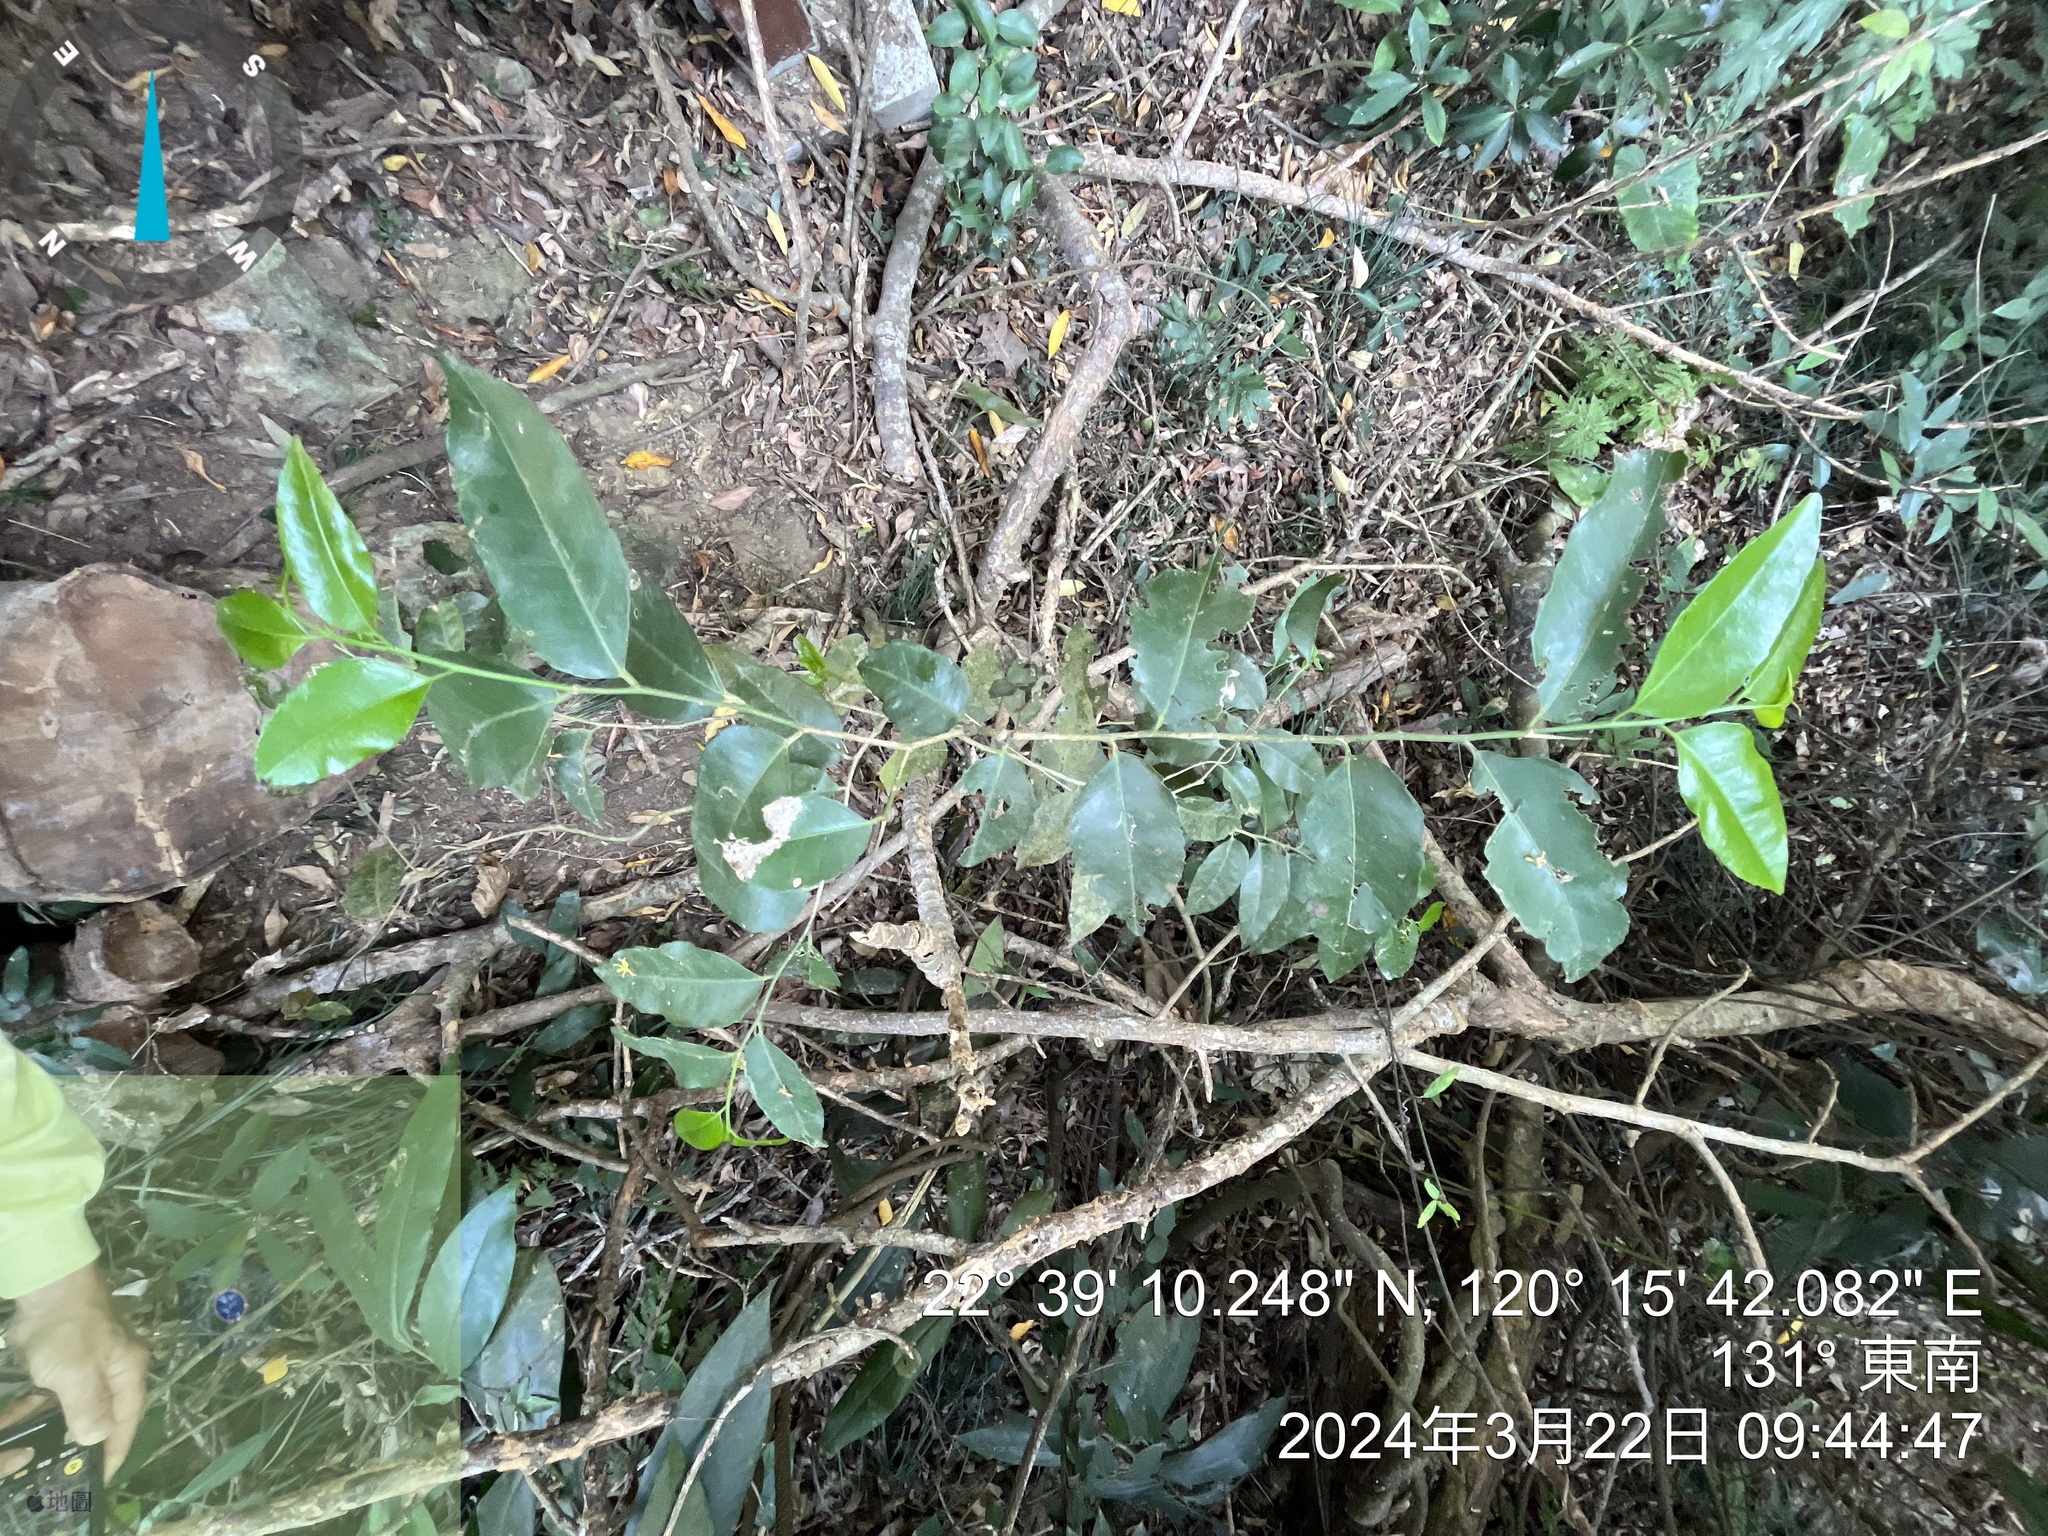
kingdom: Plantae
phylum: Tracheophyta
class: Magnoliopsida
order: Malpighiales
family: Putranjivaceae
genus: Putranjiva
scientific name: Putranjiva formosana
